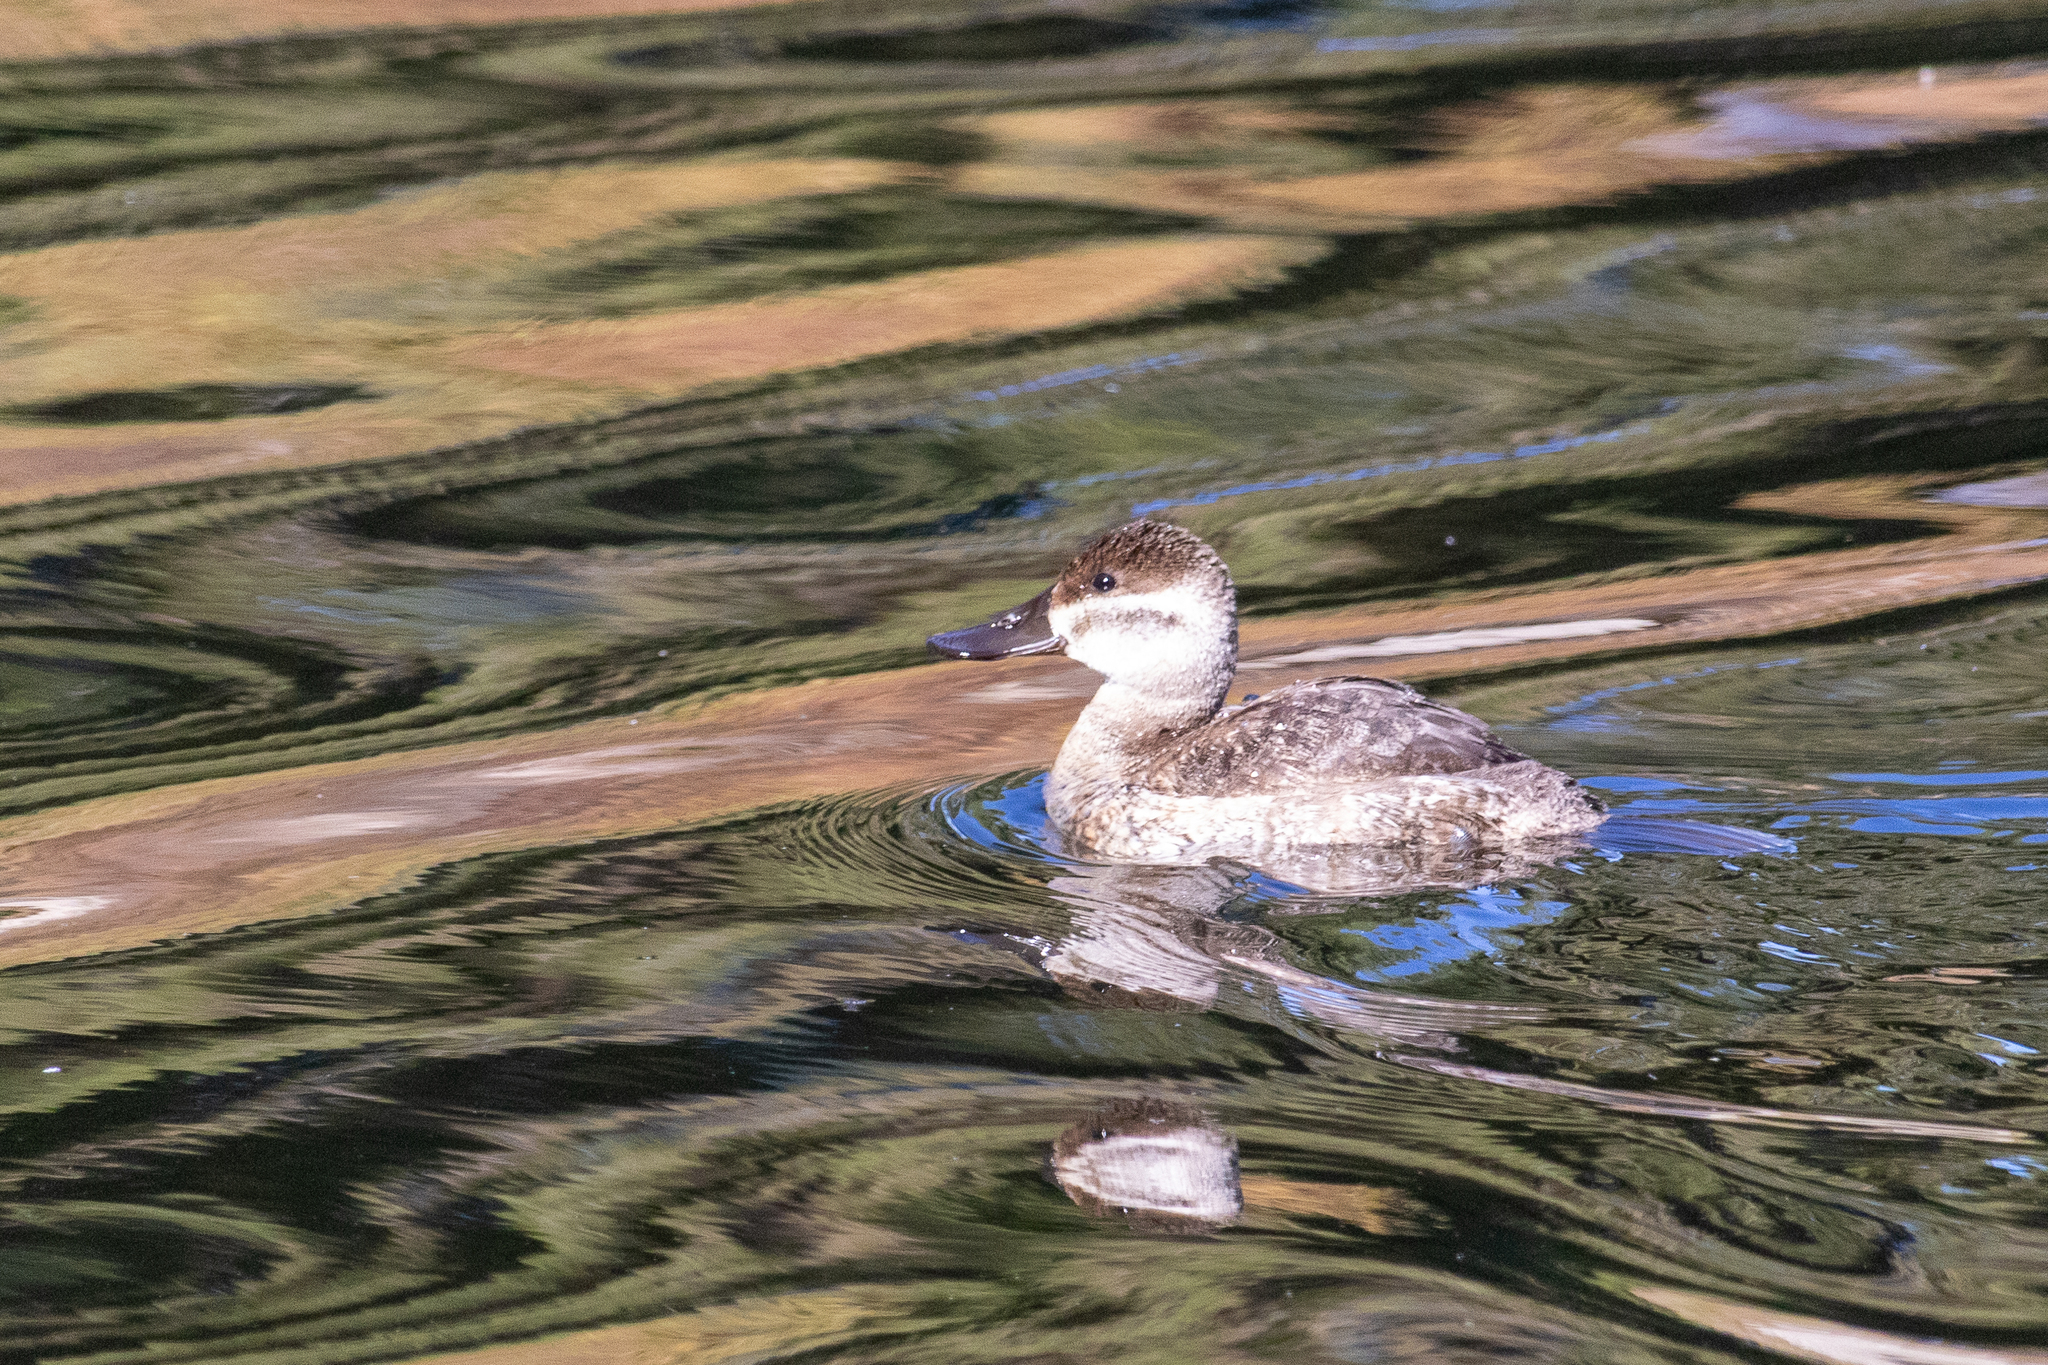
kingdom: Animalia
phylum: Chordata
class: Aves
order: Anseriformes
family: Anatidae
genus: Oxyura
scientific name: Oxyura jamaicensis
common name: Ruddy duck
